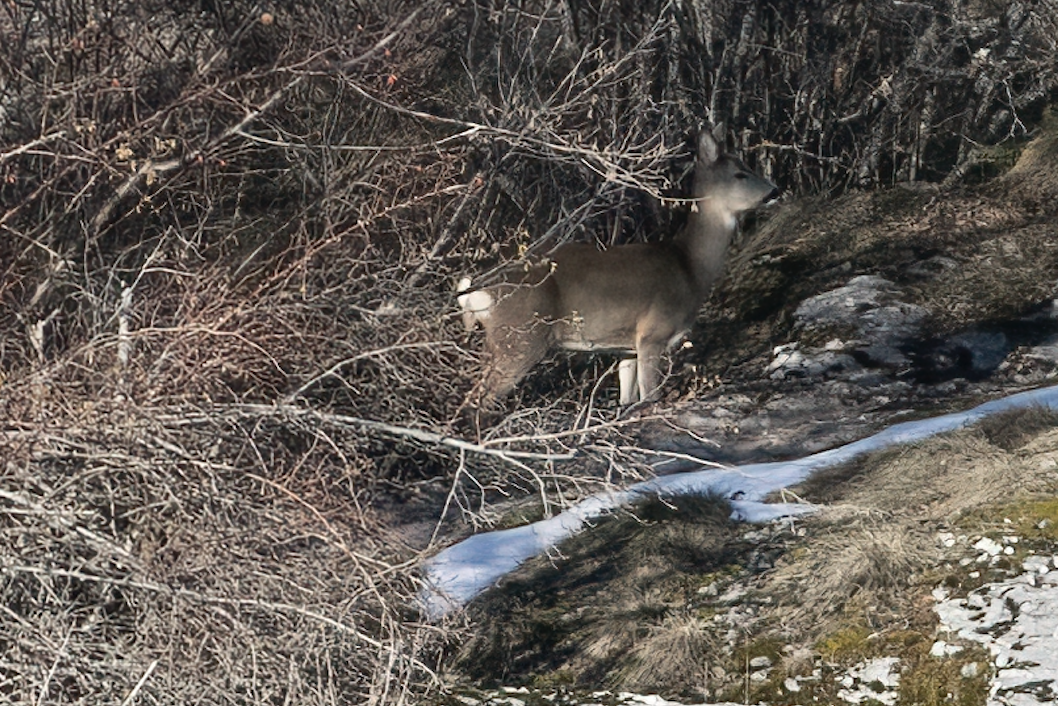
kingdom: Animalia
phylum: Chordata
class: Mammalia
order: Artiodactyla
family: Cervidae
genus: Capreolus
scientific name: Capreolus capreolus
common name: Western roe deer
